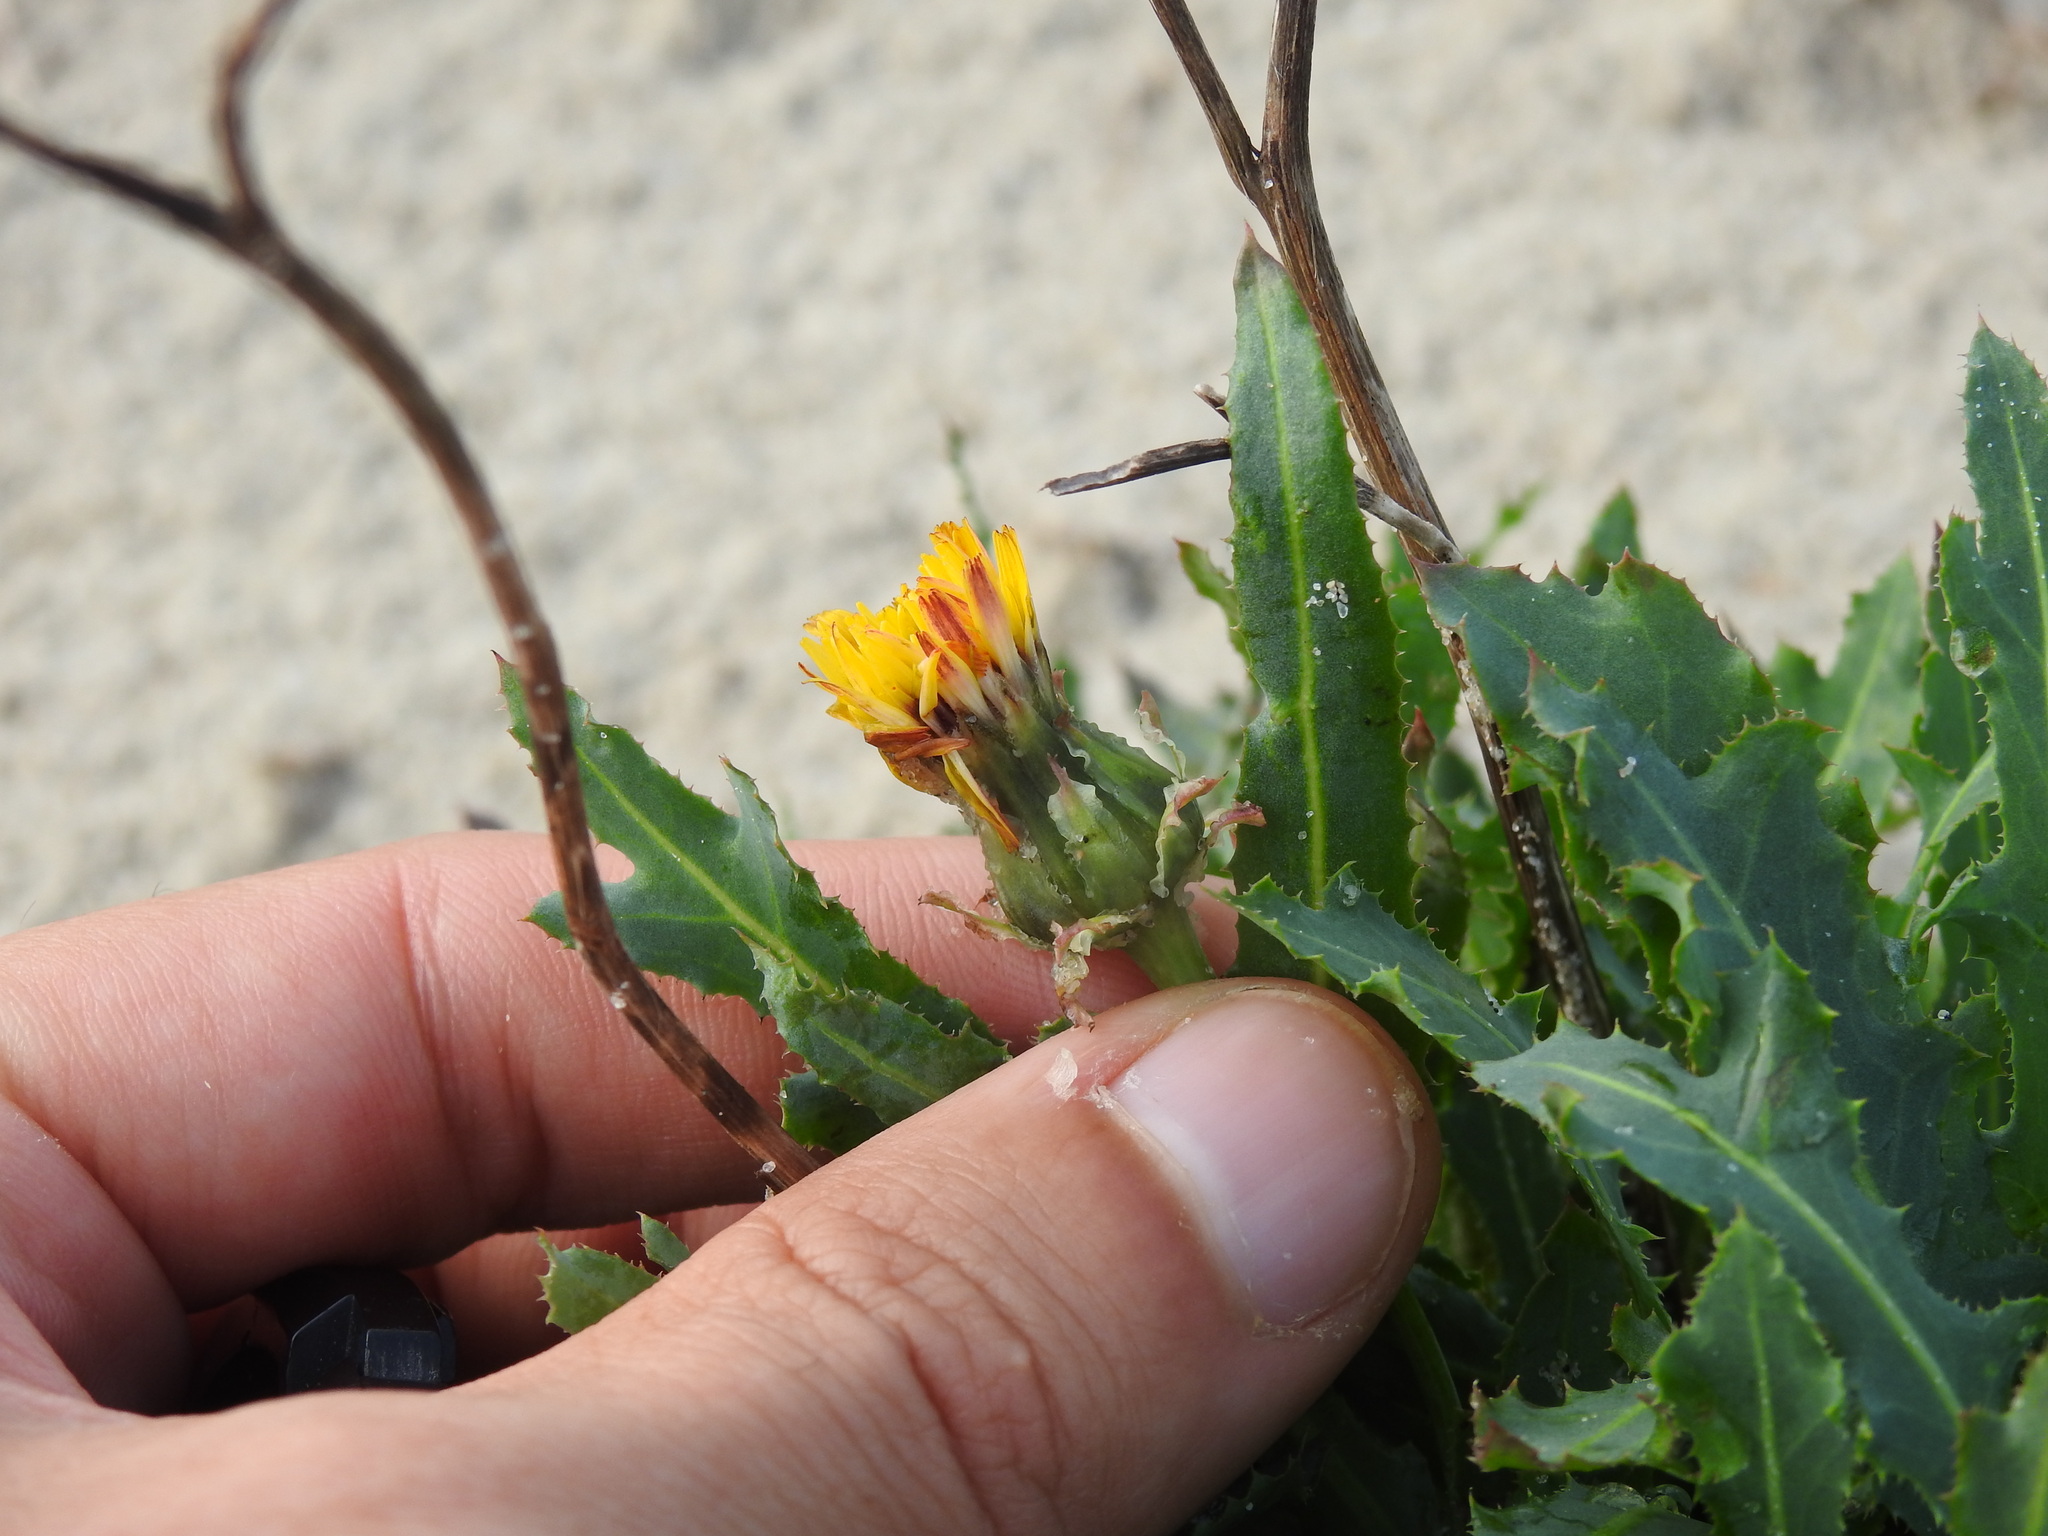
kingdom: Plantae
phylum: Tracheophyta
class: Magnoliopsida
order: Asterales
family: Asteraceae
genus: Reichardia
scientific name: Reichardia gaditana
